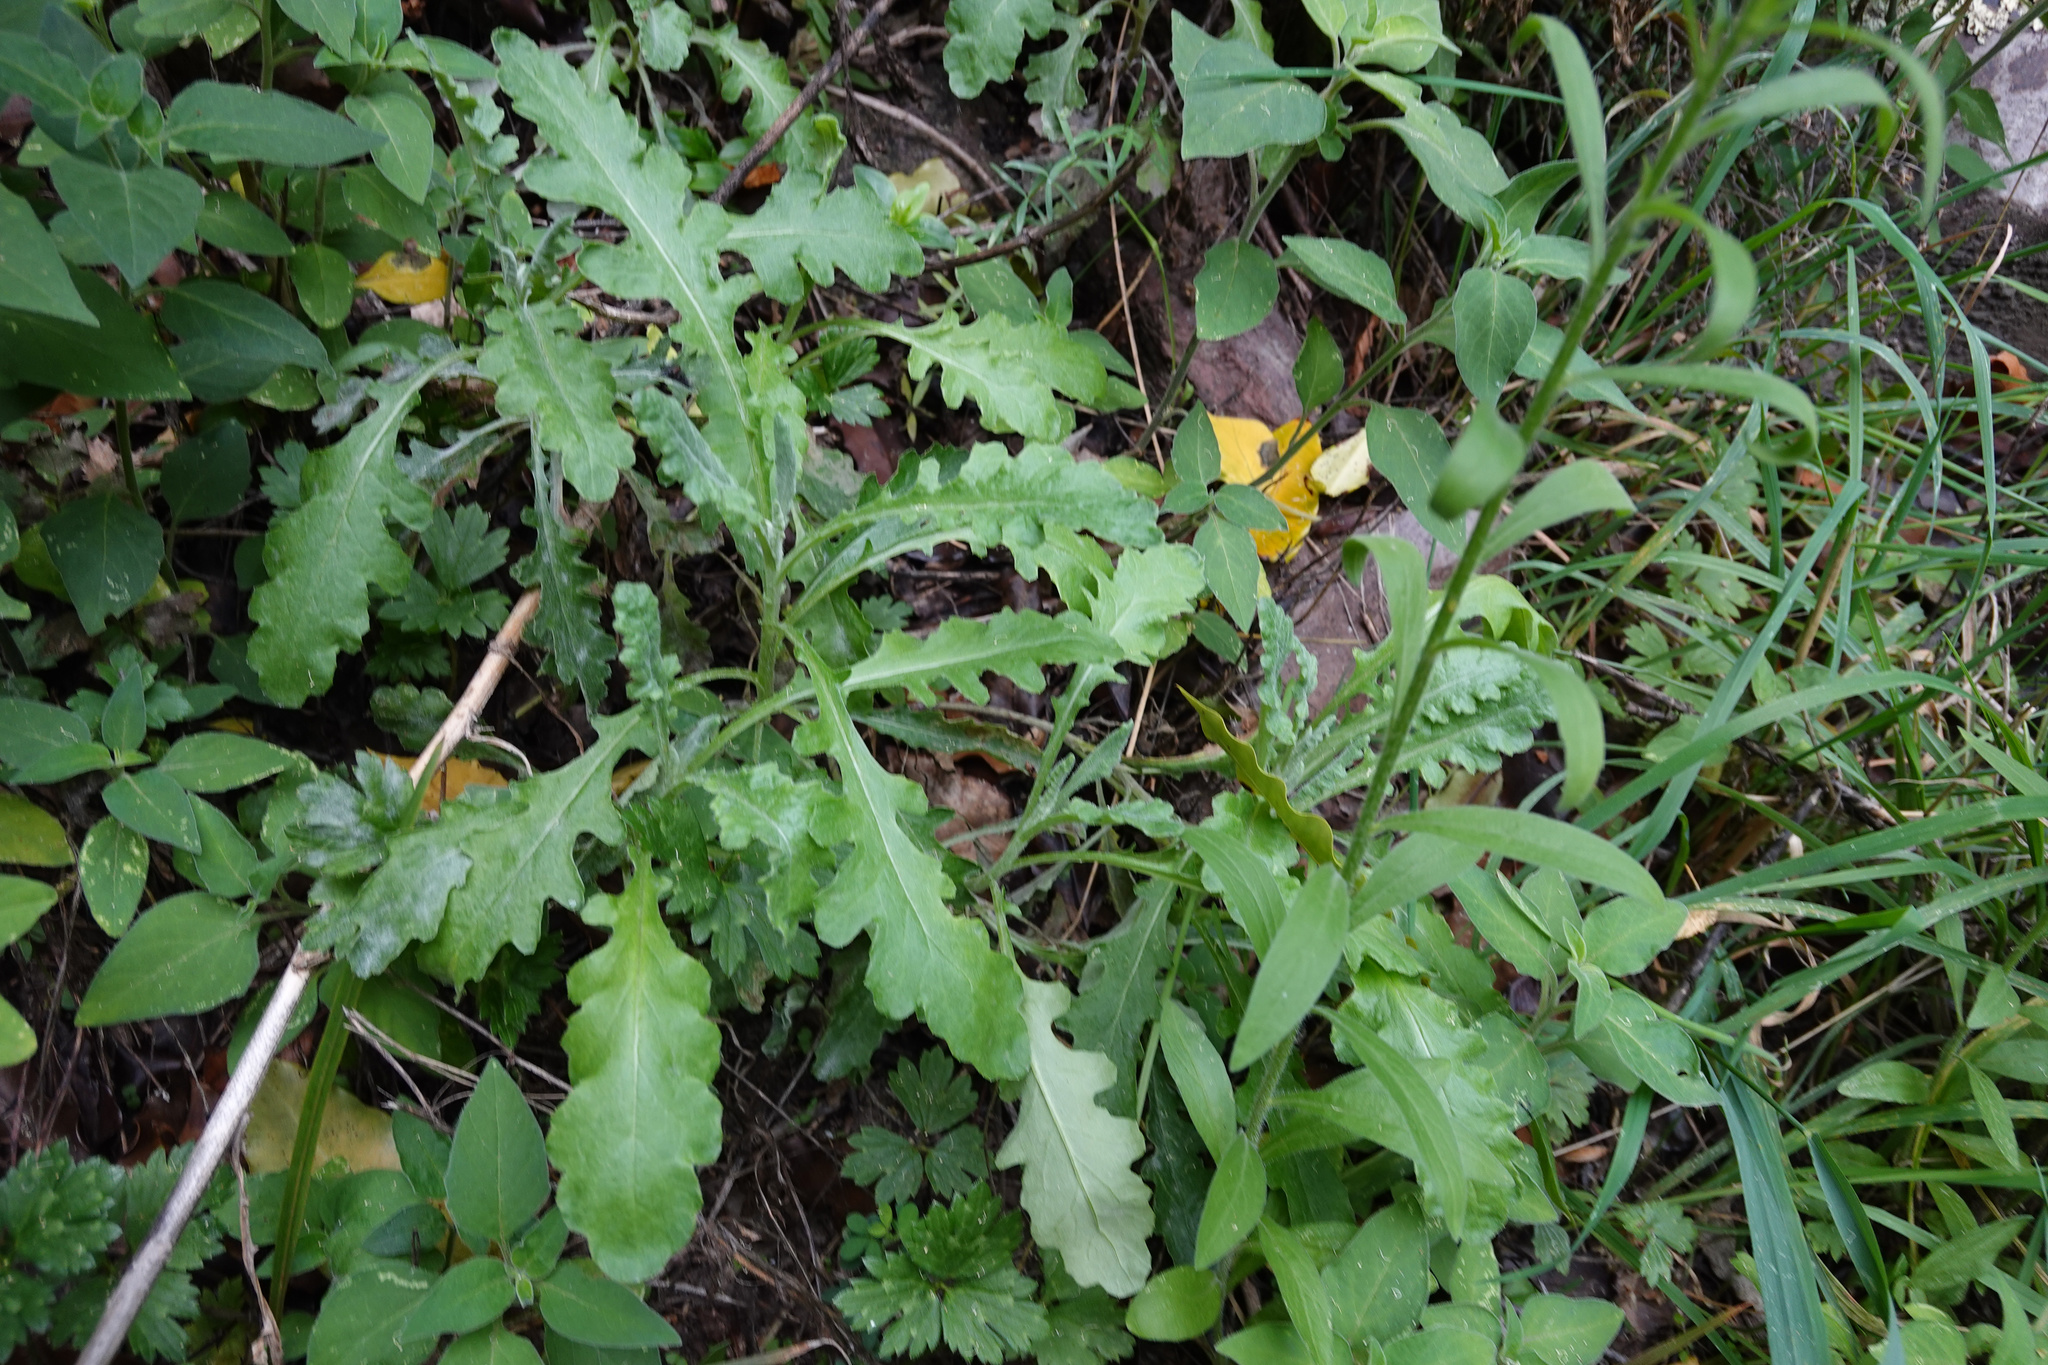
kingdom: Plantae
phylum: Tracheophyta
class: Magnoliopsida
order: Asterales
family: Asteraceae
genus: Senecio
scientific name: Senecio glomeratus
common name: Cutleaf burnweed
